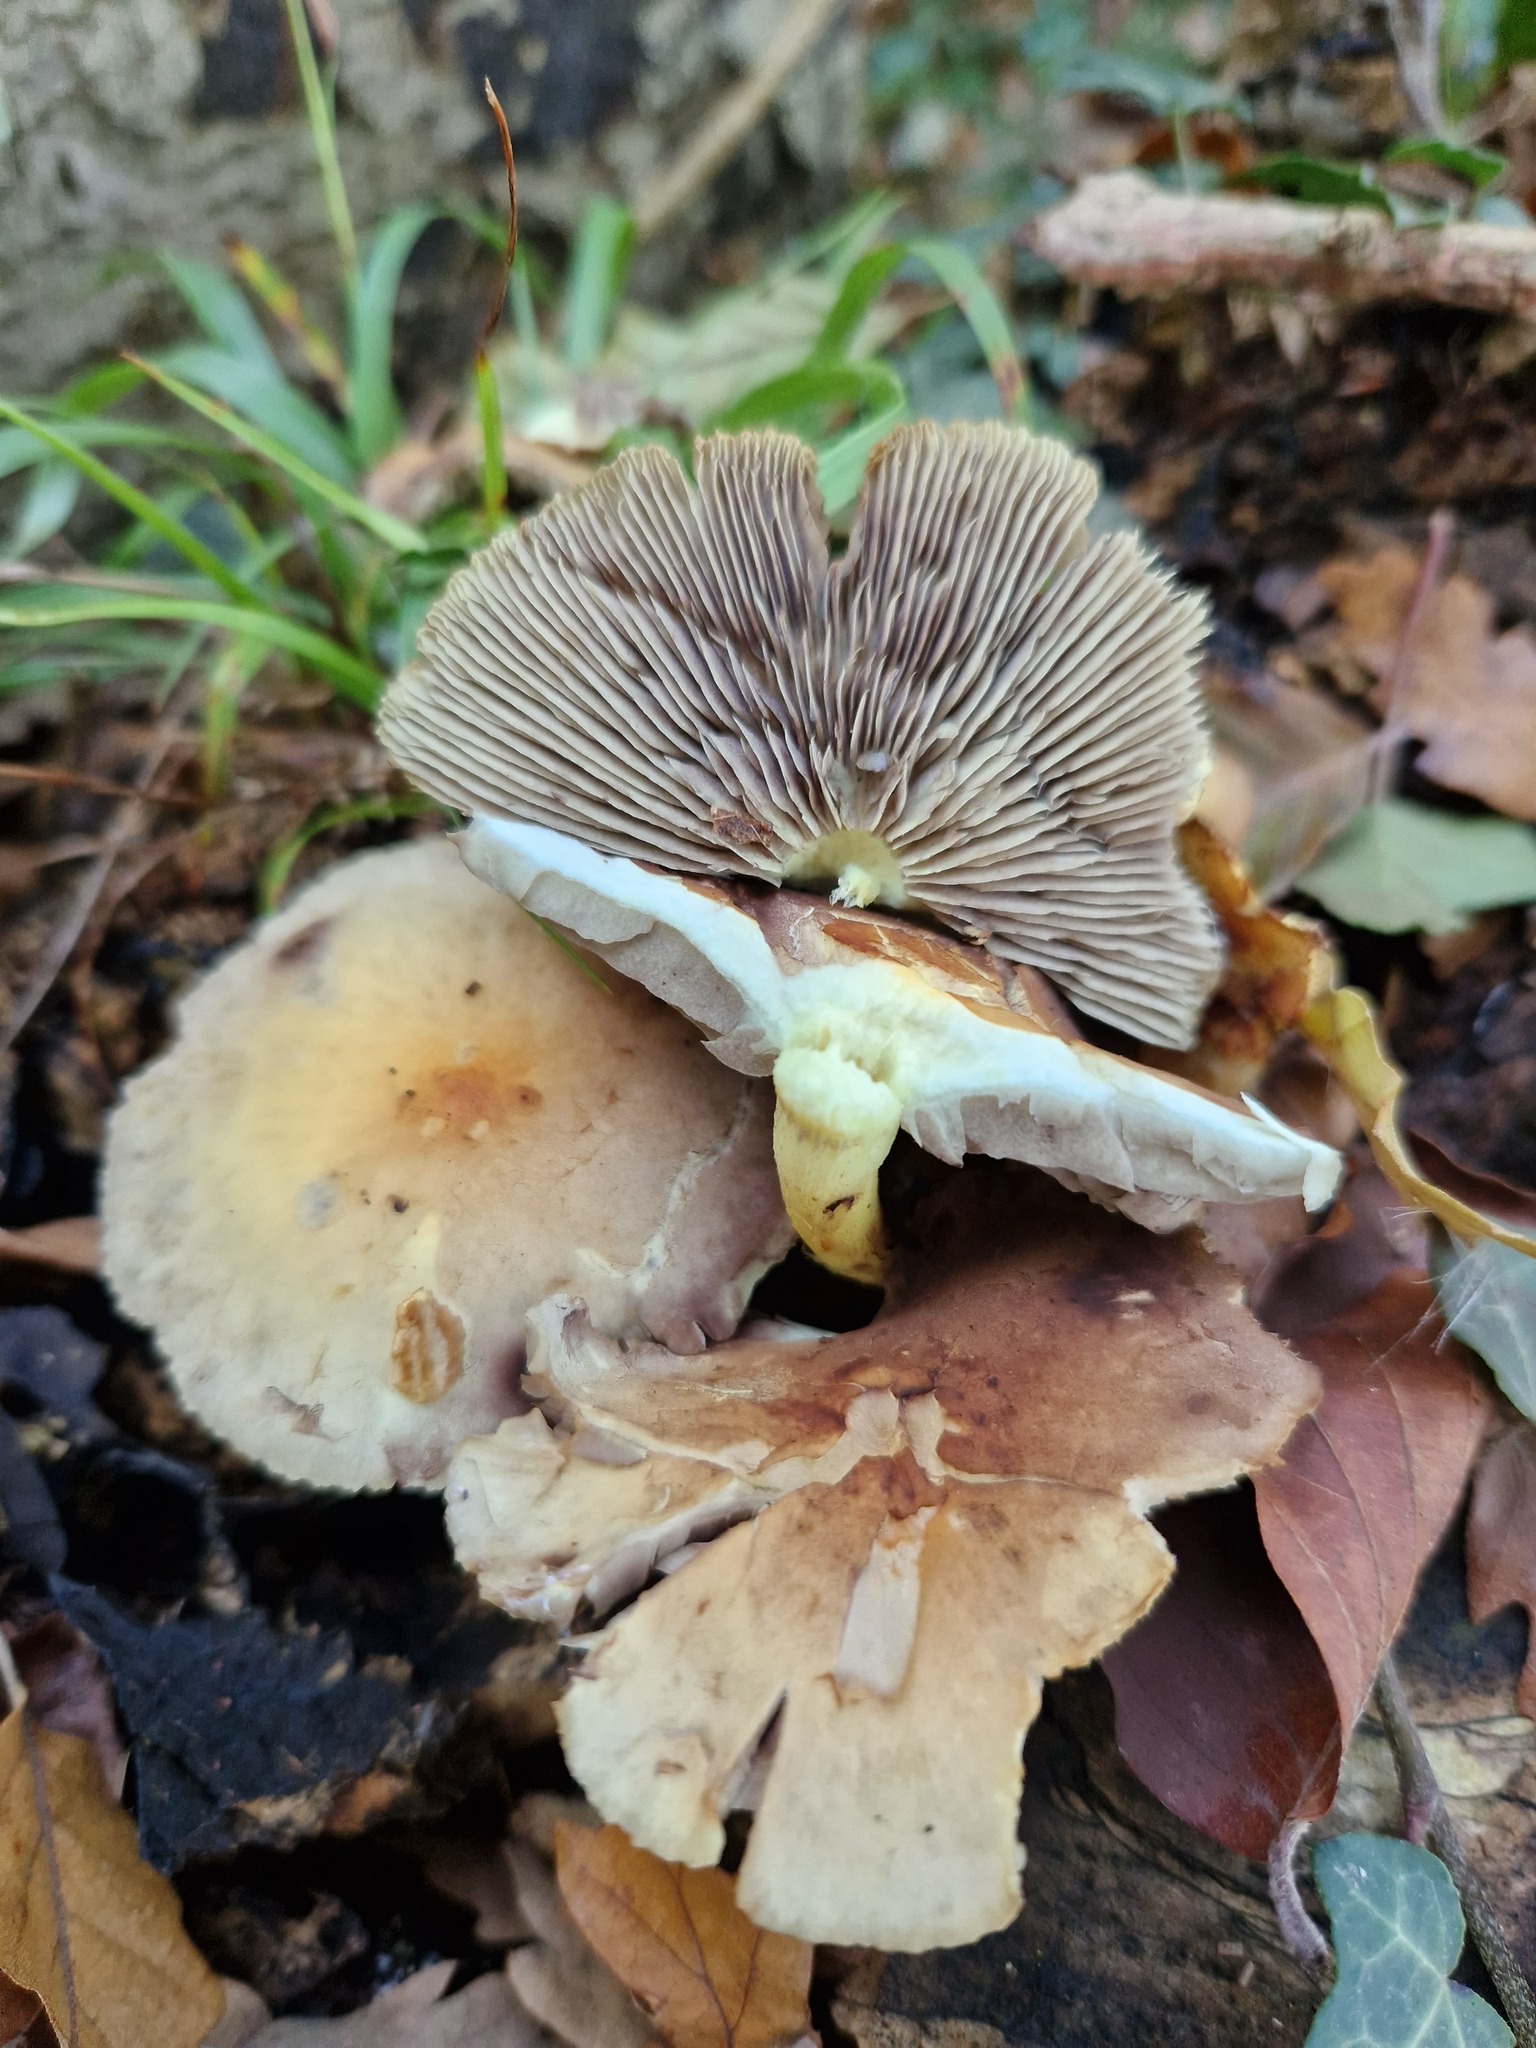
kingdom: Fungi
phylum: Basidiomycota
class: Agaricomycetes
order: Agaricales
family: Strophariaceae
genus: Hypholoma
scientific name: Hypholoma fasciculare
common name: Sulphur tuft
